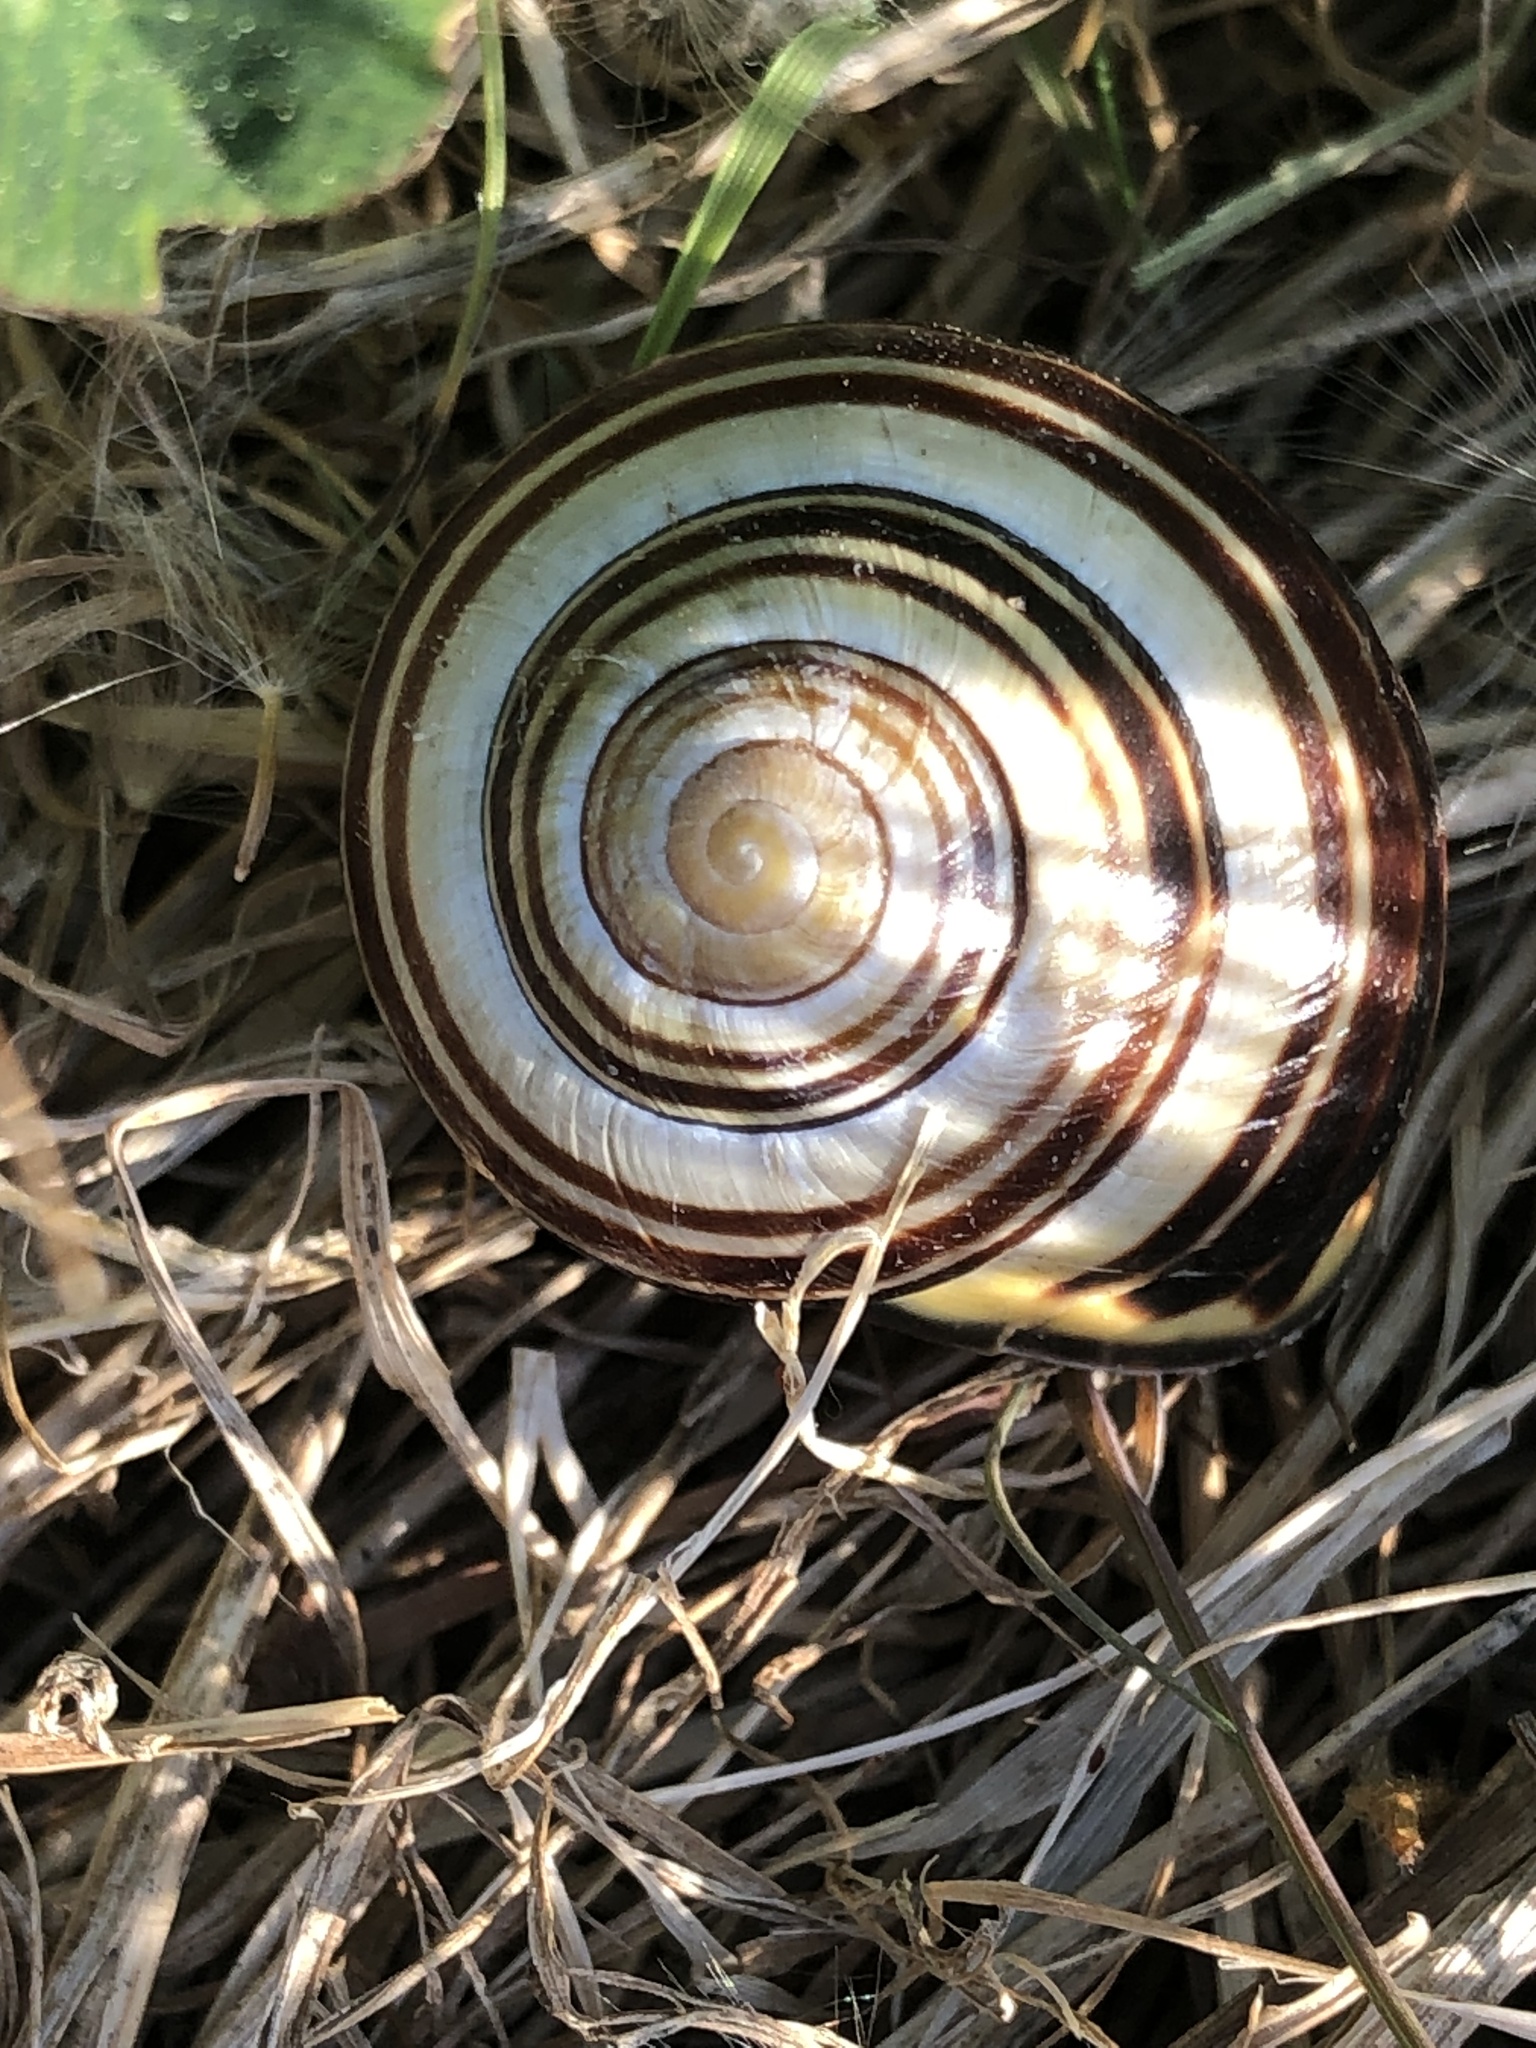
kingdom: Animalia
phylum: Mollusca
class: Gastropoda
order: Stylommatophora
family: Helicidae
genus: Cepaea
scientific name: Cepaea nemoralis
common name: Grovesnail
